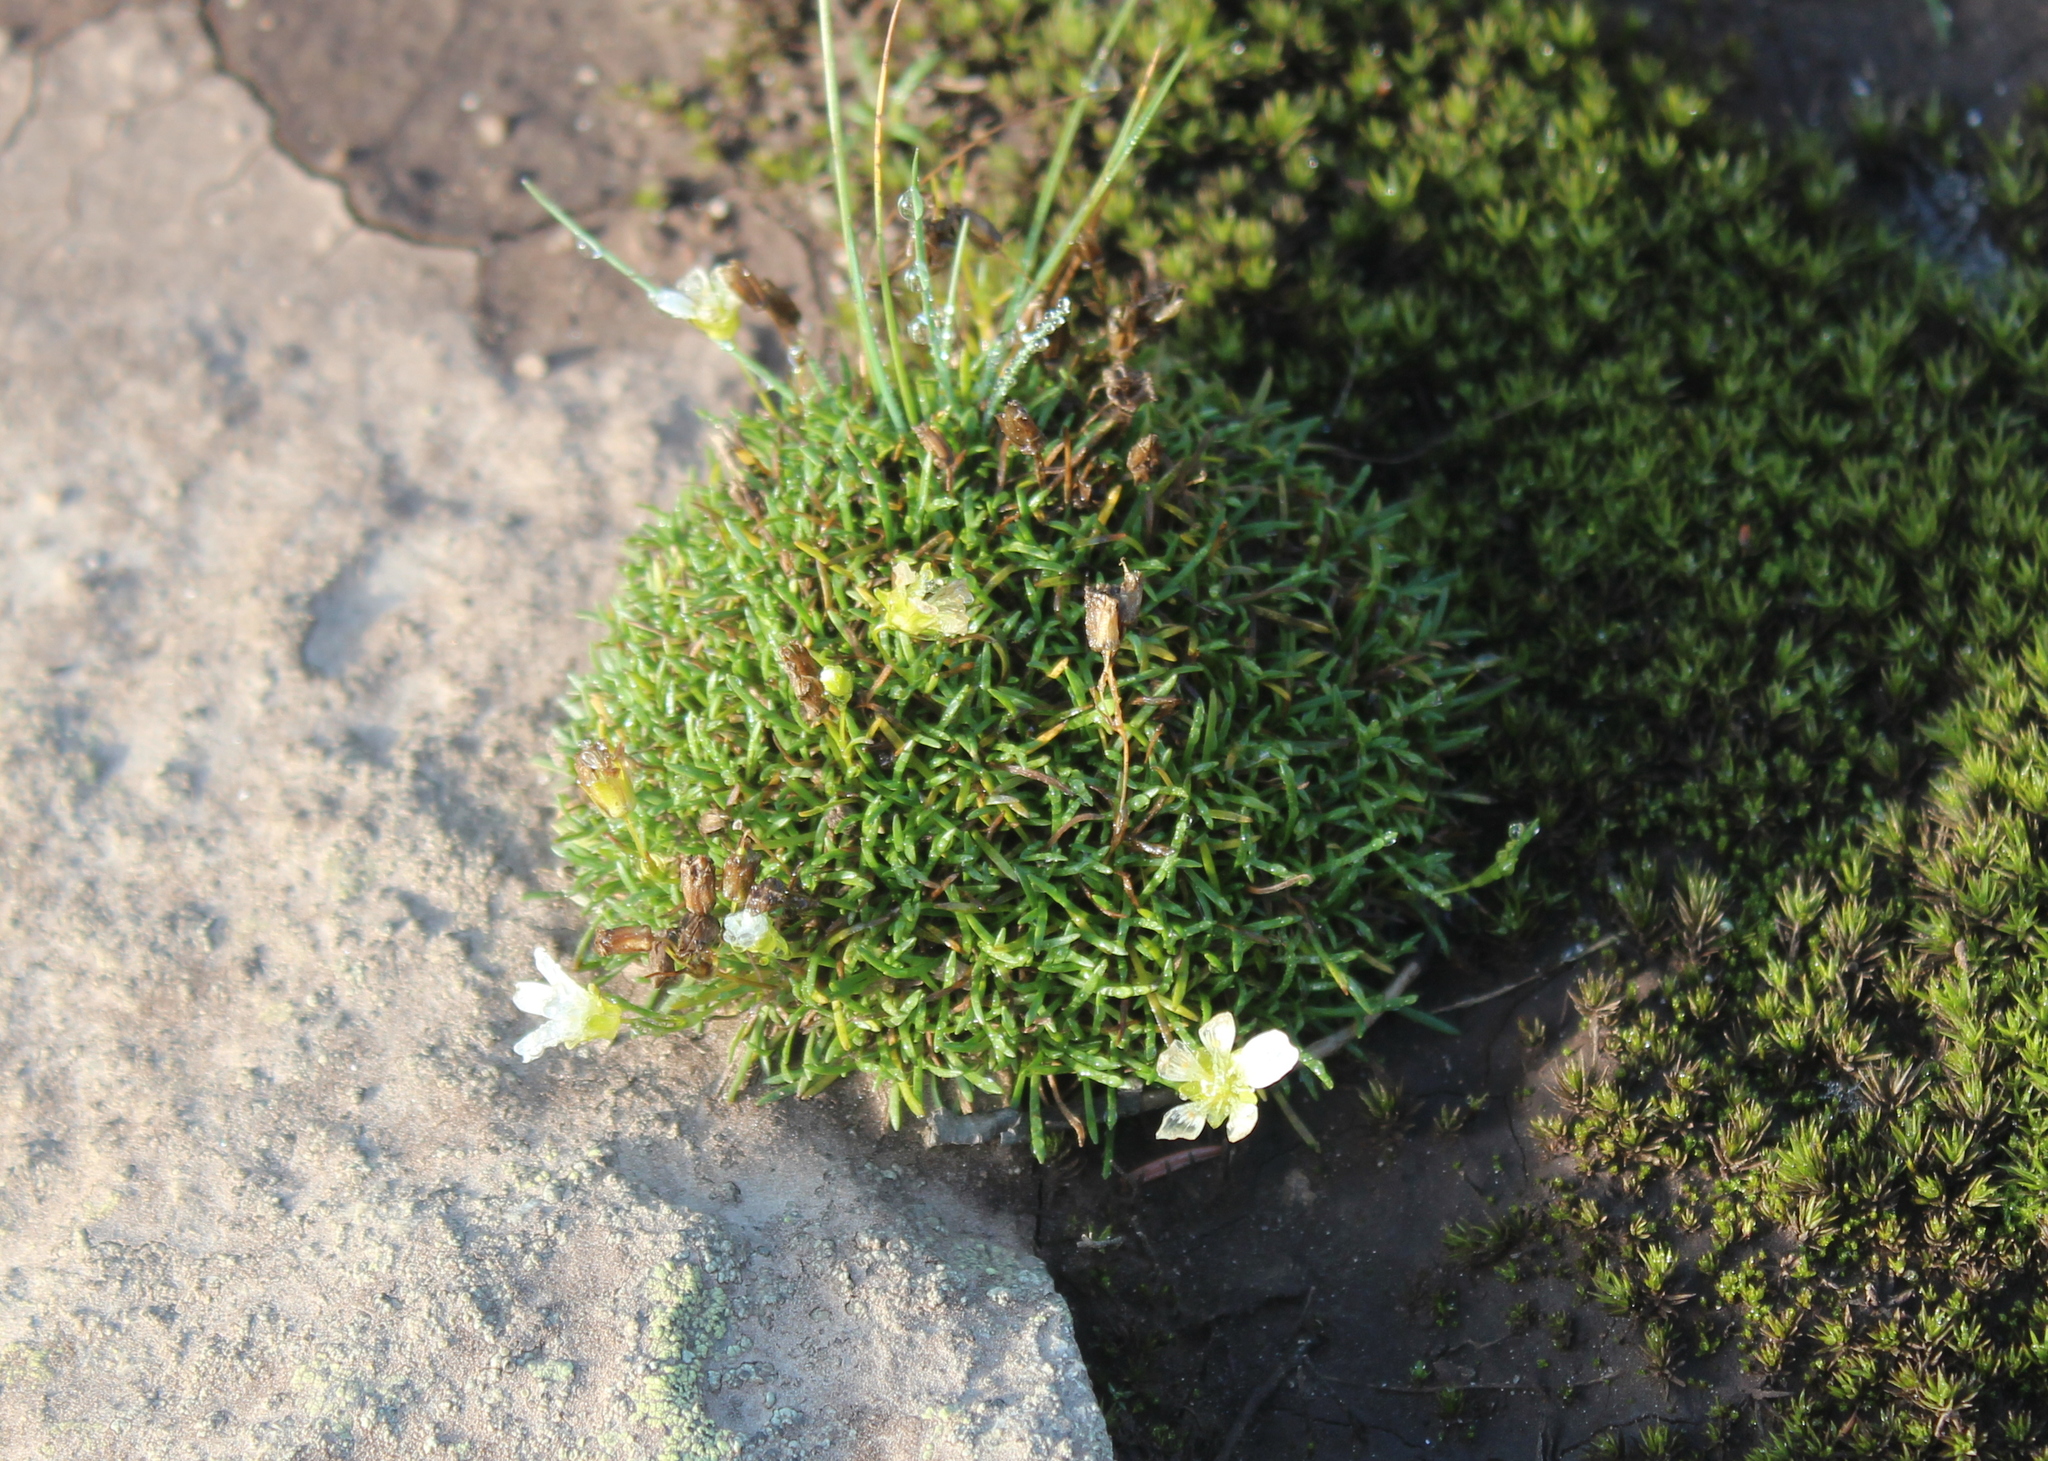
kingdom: Plantae
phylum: Tracheophyta
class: Magnoliopsida
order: Caryophyllales
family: Caryophyllaceae
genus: Geocarpon
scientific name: Geocarpon groenlandicum
